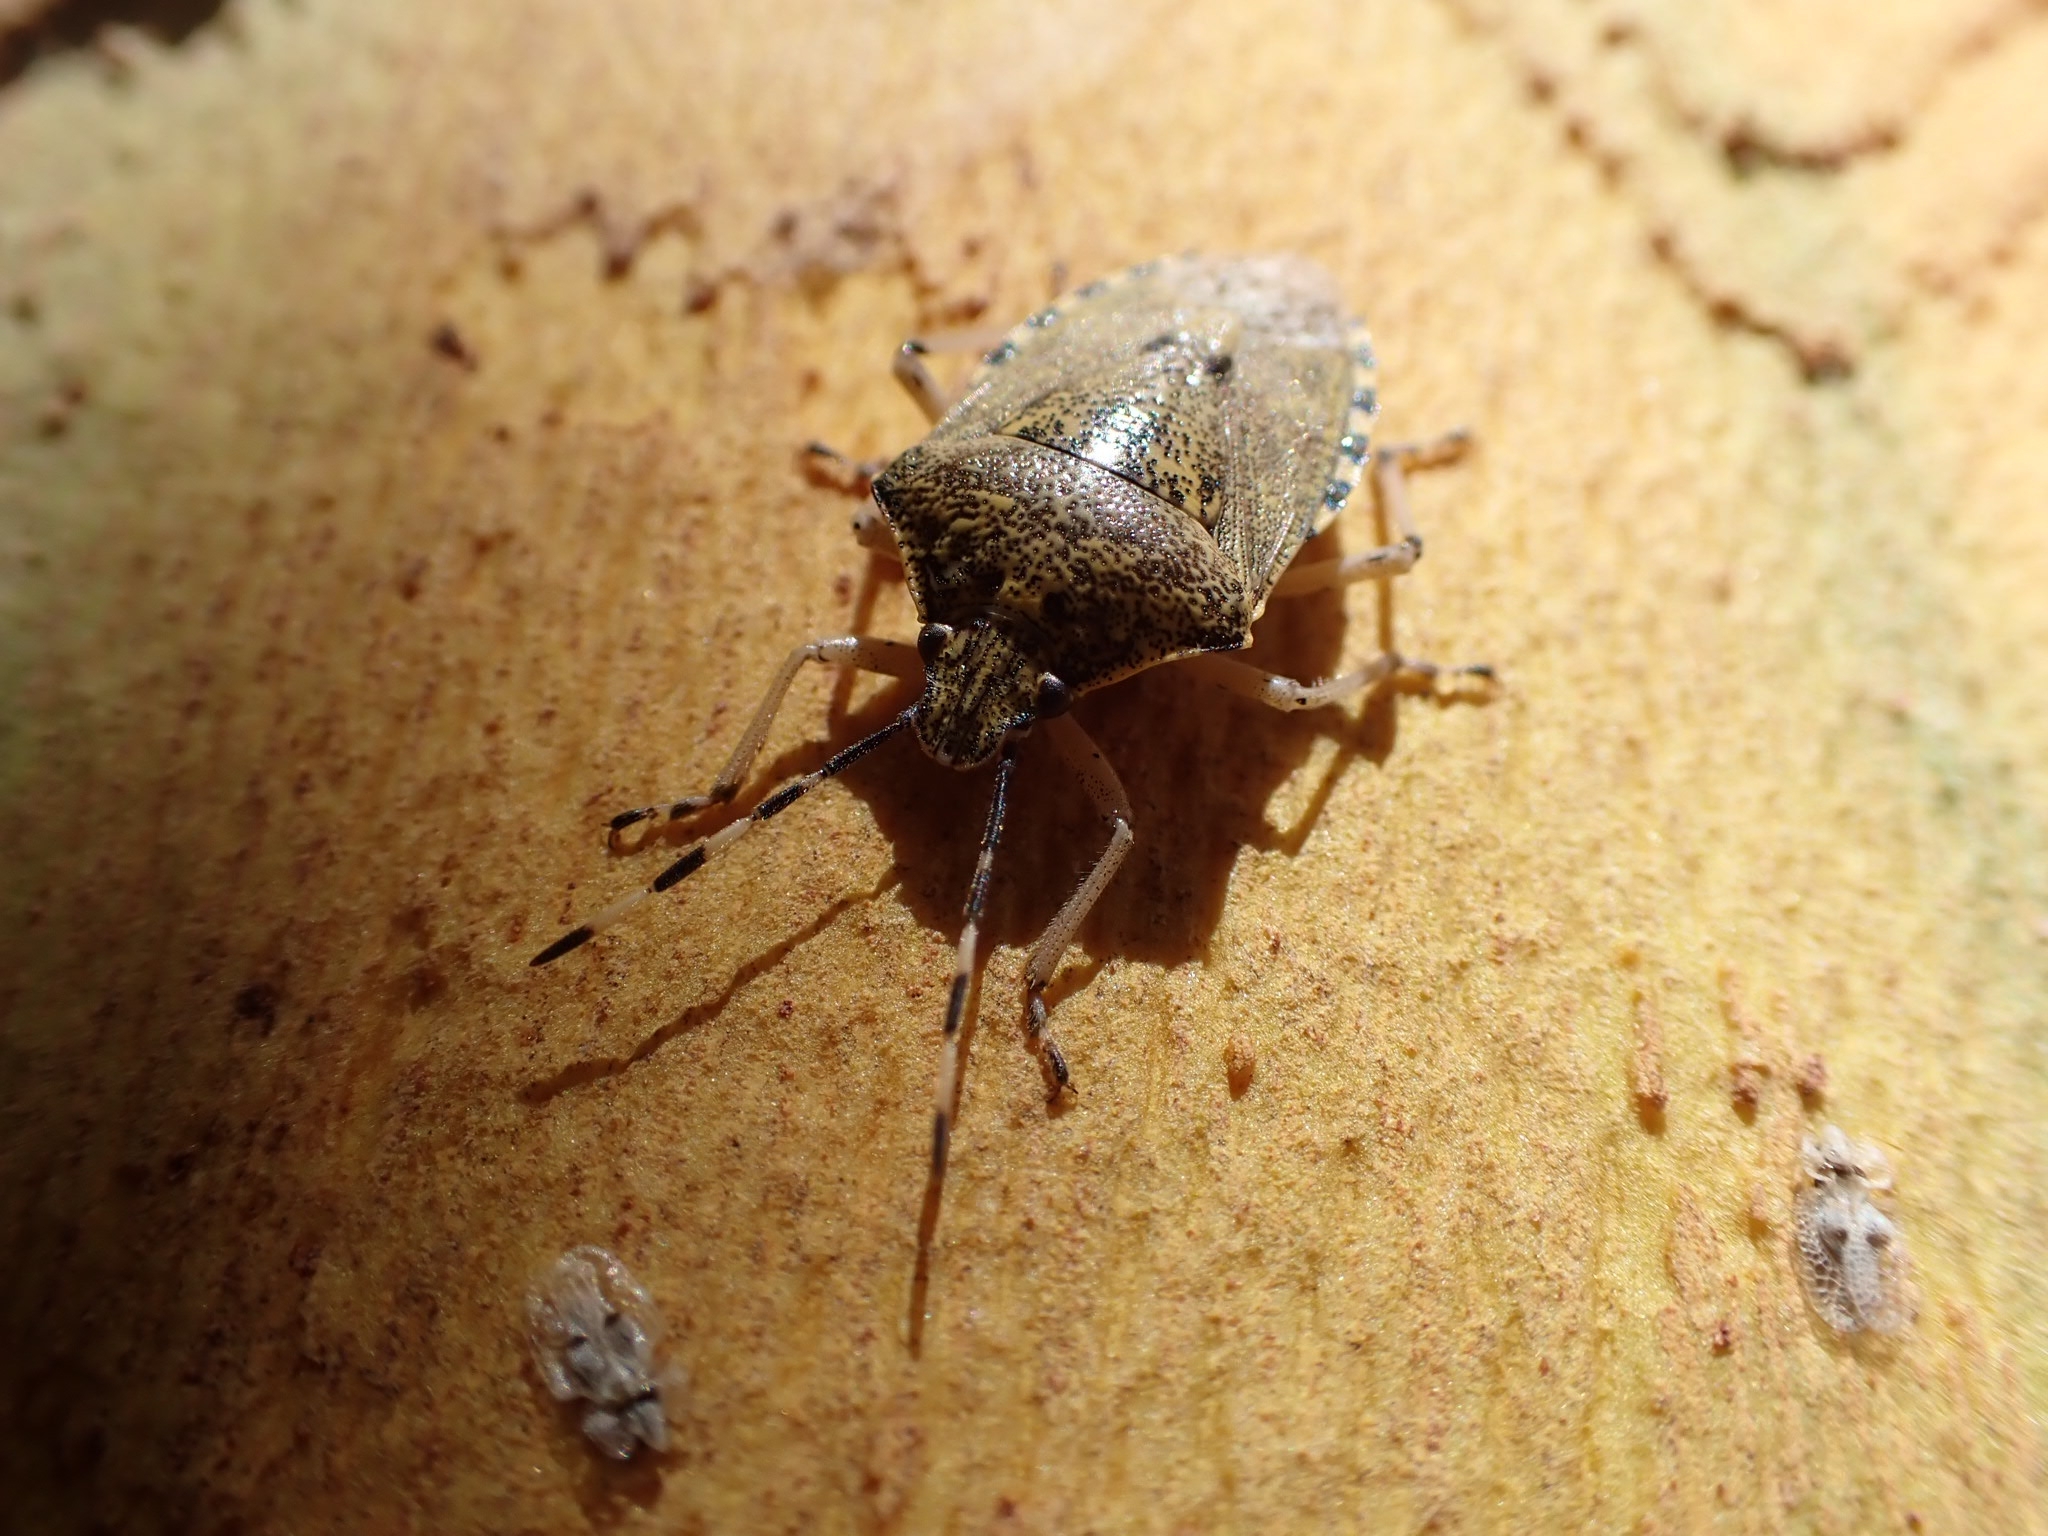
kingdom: Animalia
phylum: Arthropoda
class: Insecta
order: Hemiptera
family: Pentatomidae
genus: Rhaphigaster
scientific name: Rhaphigaster nebulosa
